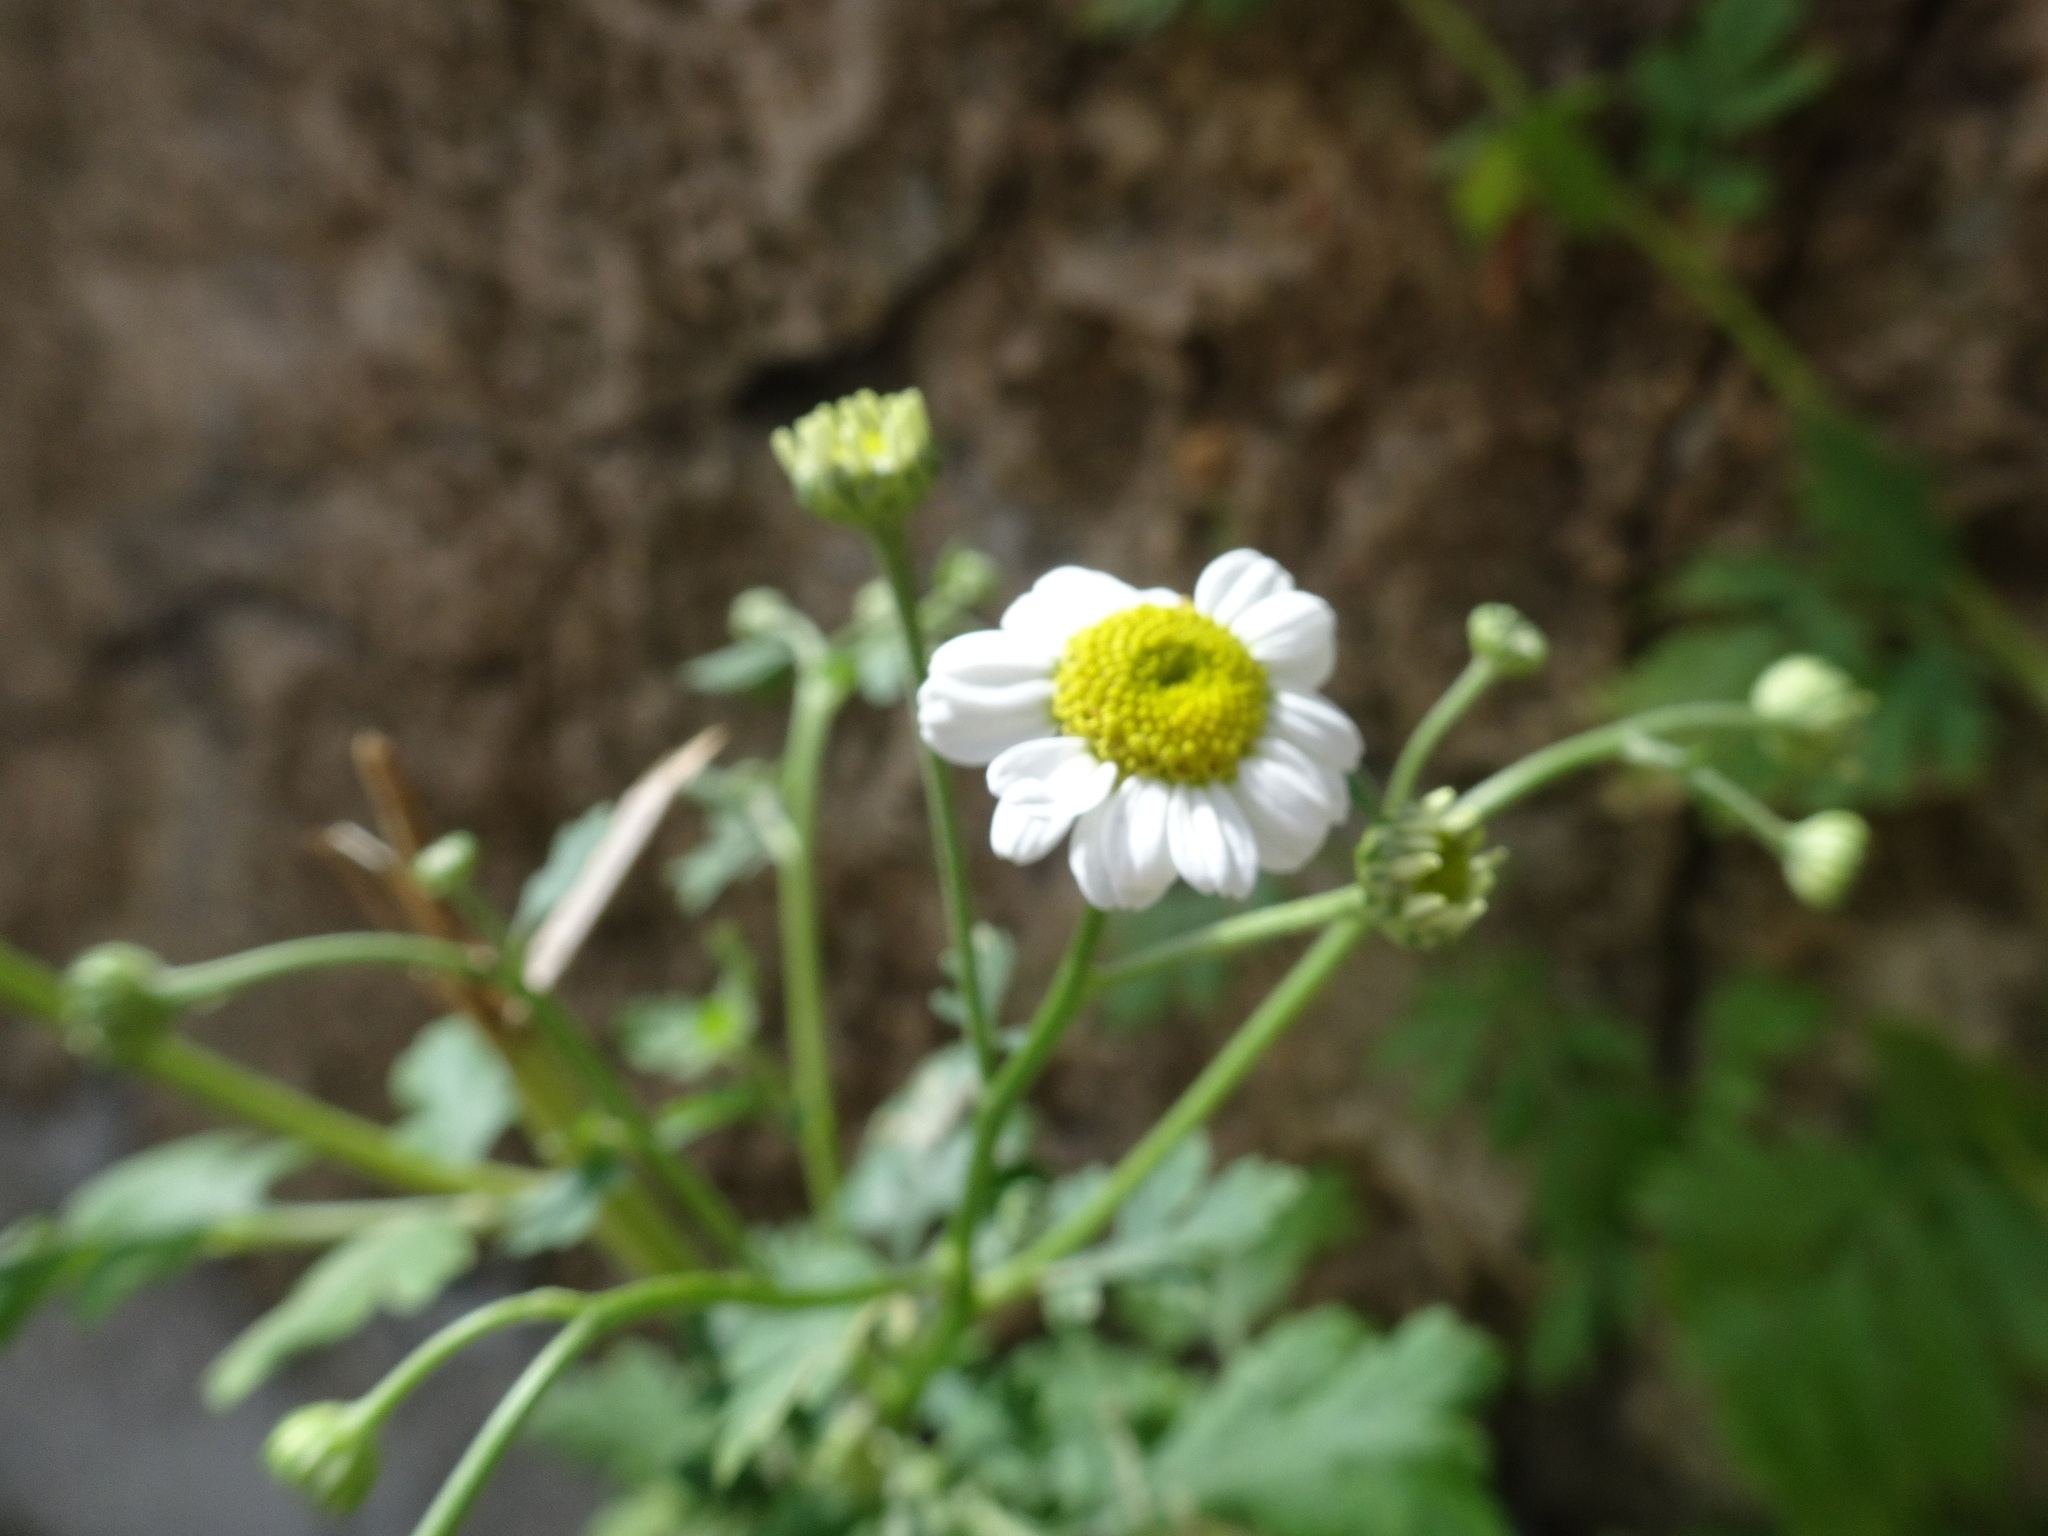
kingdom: Plantae
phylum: Tracheophyta
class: Magnoliopsida
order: Asterales
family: Asteraceae
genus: Tanacetum
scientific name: Tanacetum parthenium
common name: Feverfew
